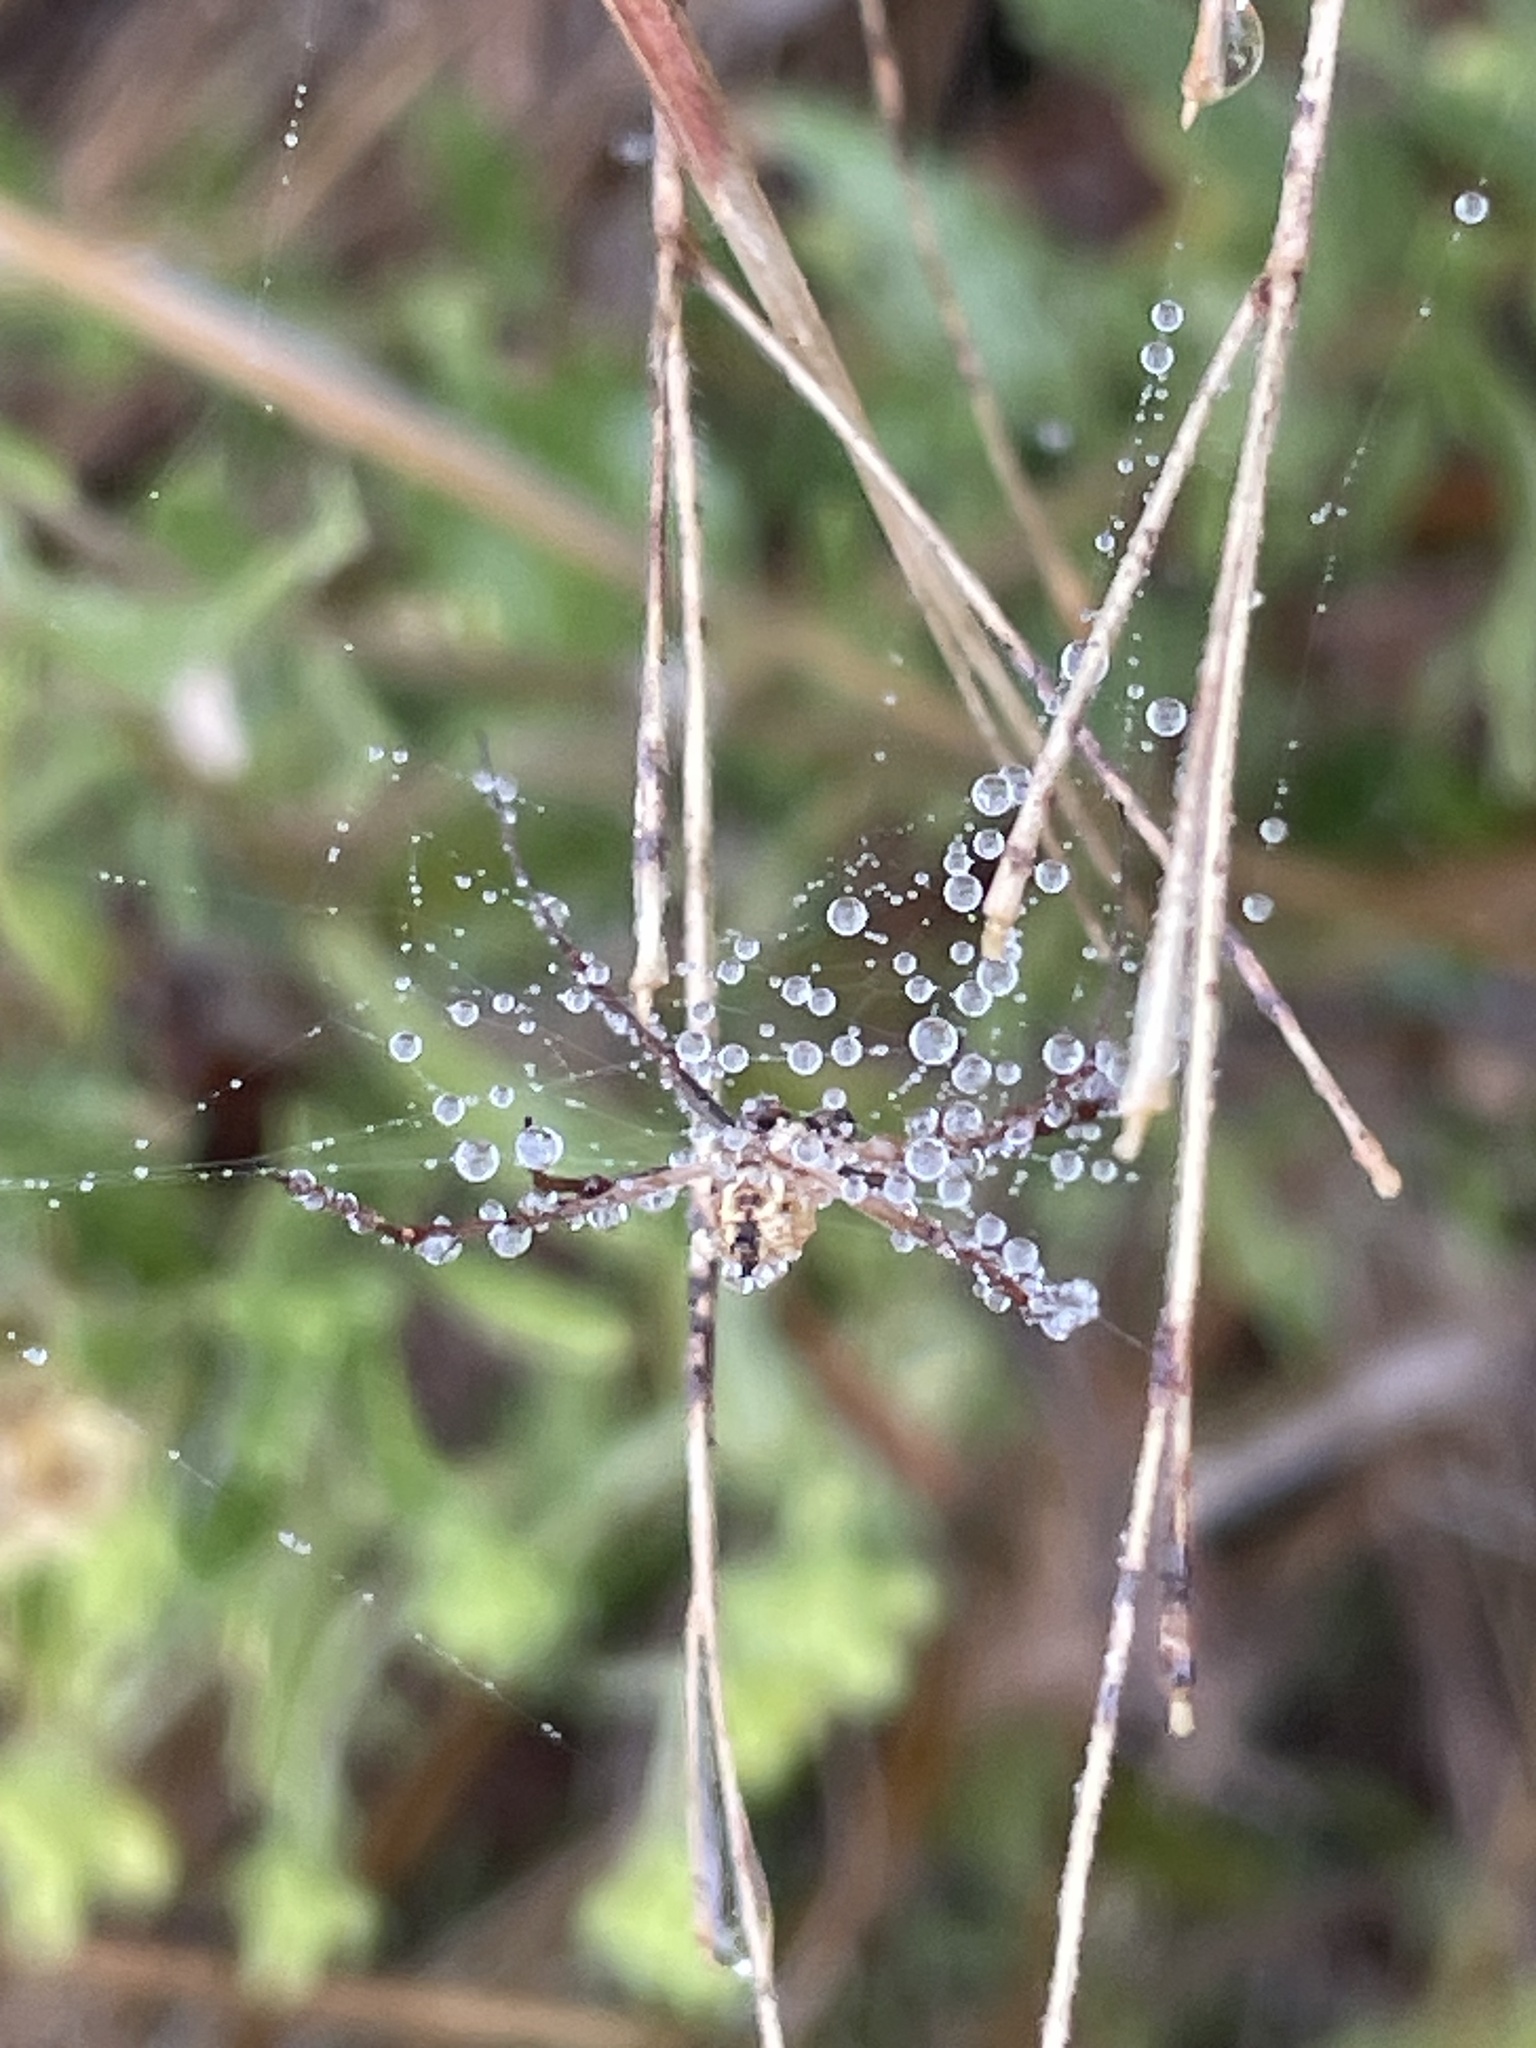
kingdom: Animalia
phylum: Arthropoda
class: Arachnida
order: Araneae
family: Araneidae
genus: Argiope
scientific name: Argiope trifasciata
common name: Banded garden spider
